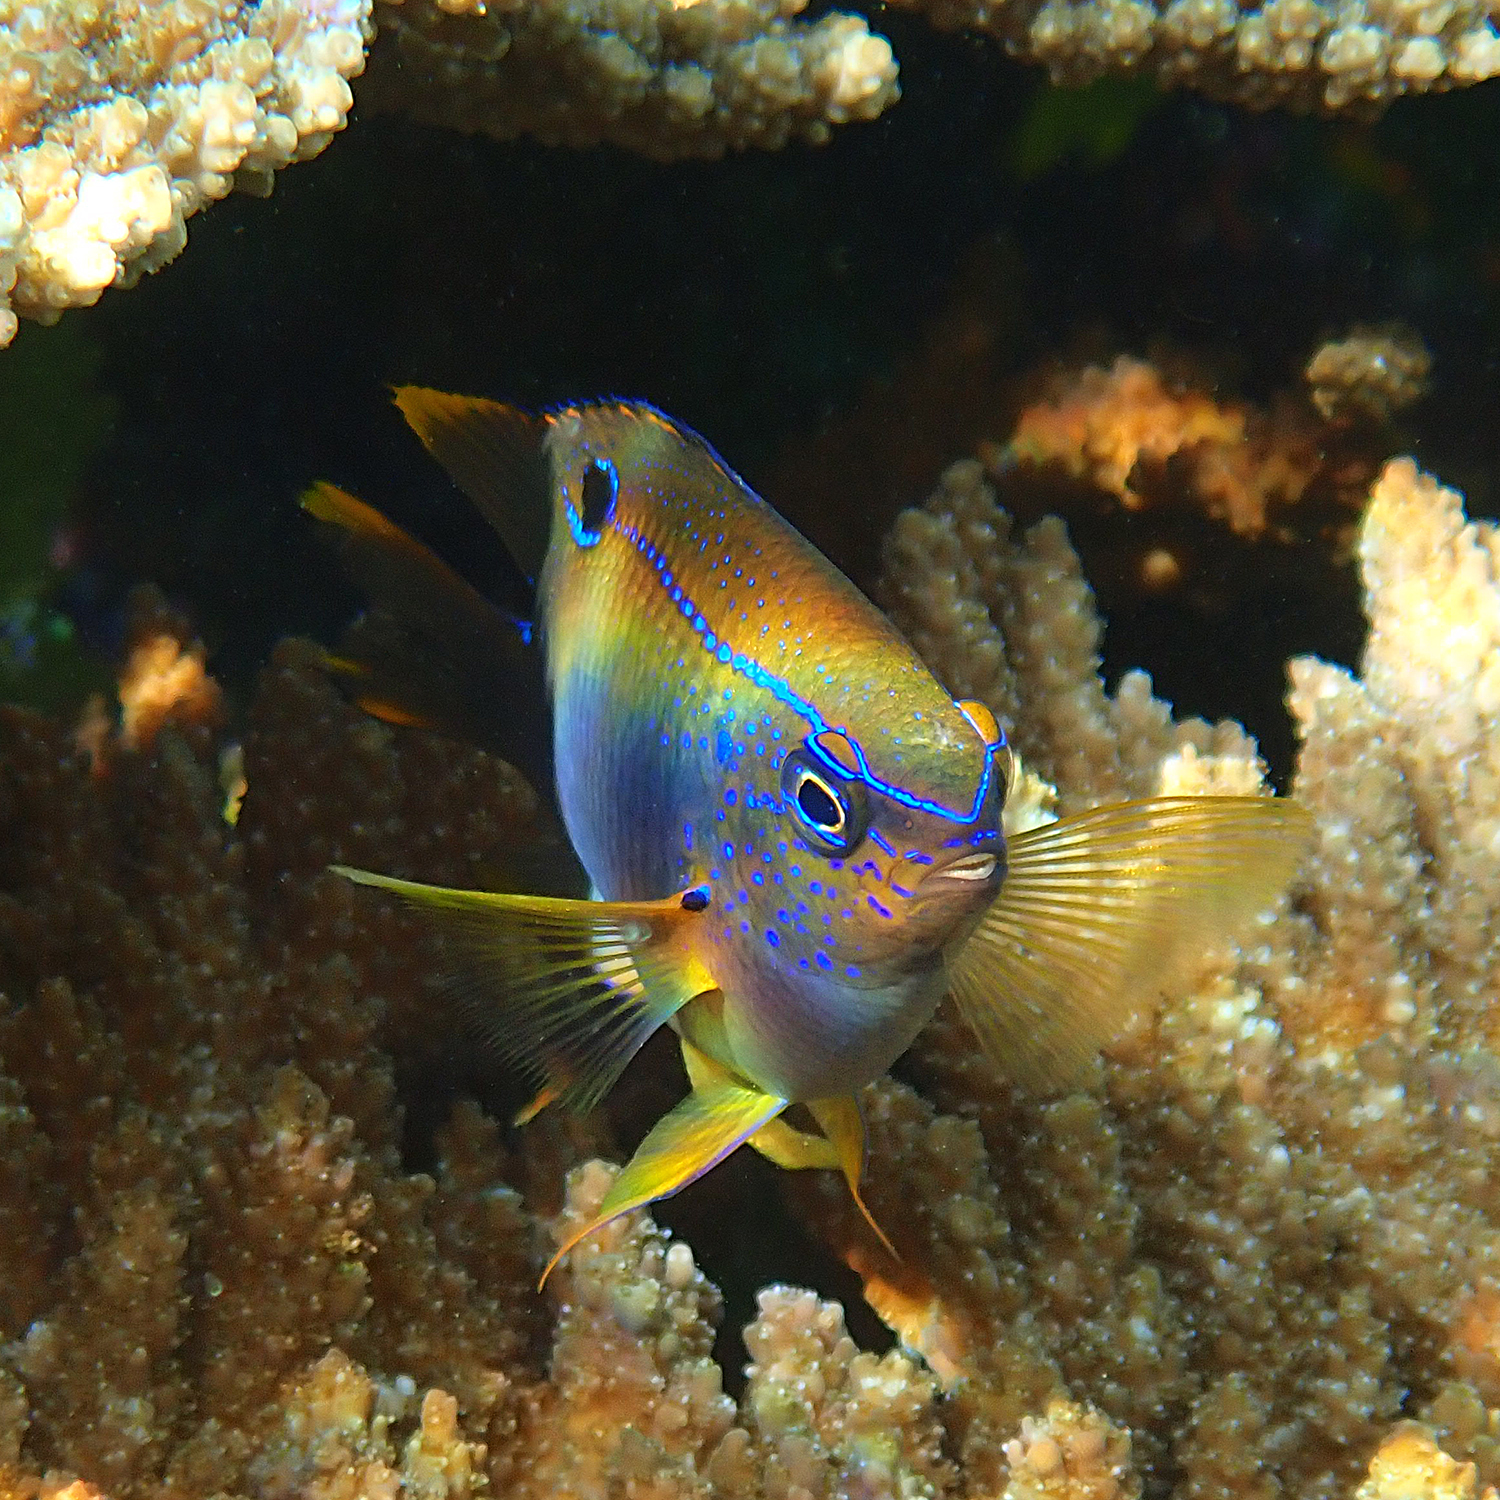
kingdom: Animalia
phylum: Chordata
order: Perciformes
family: Pomacentridae
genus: Neoglyphidodon
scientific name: Neoglyphidodon polyacanthus
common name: Multi-spined damsel
